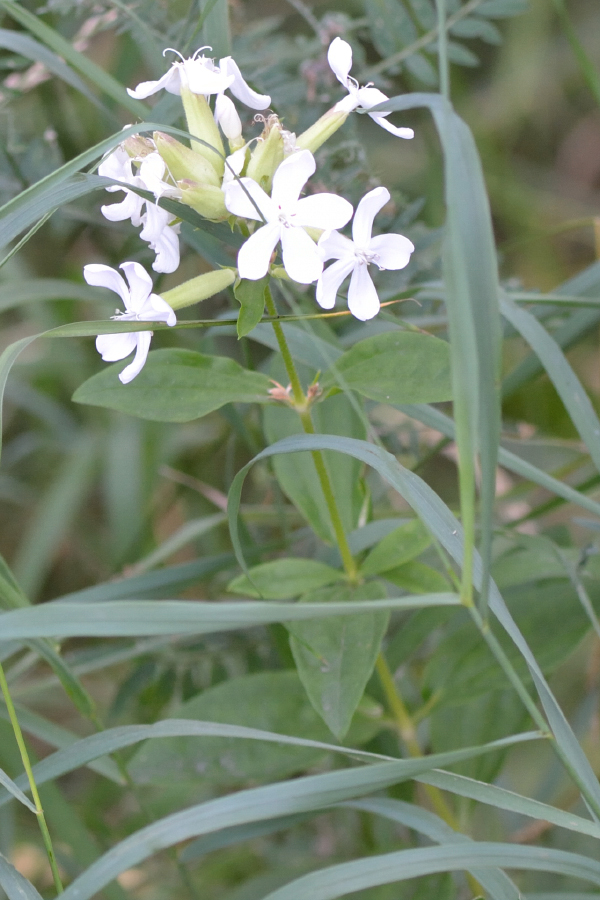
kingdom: Plantae
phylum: Tracheophyta
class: Magnoliopsida
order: Caryophyllales
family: Caryophyllaceae
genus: Saponaria
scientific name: Saponaria officinalis
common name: Soapwort
